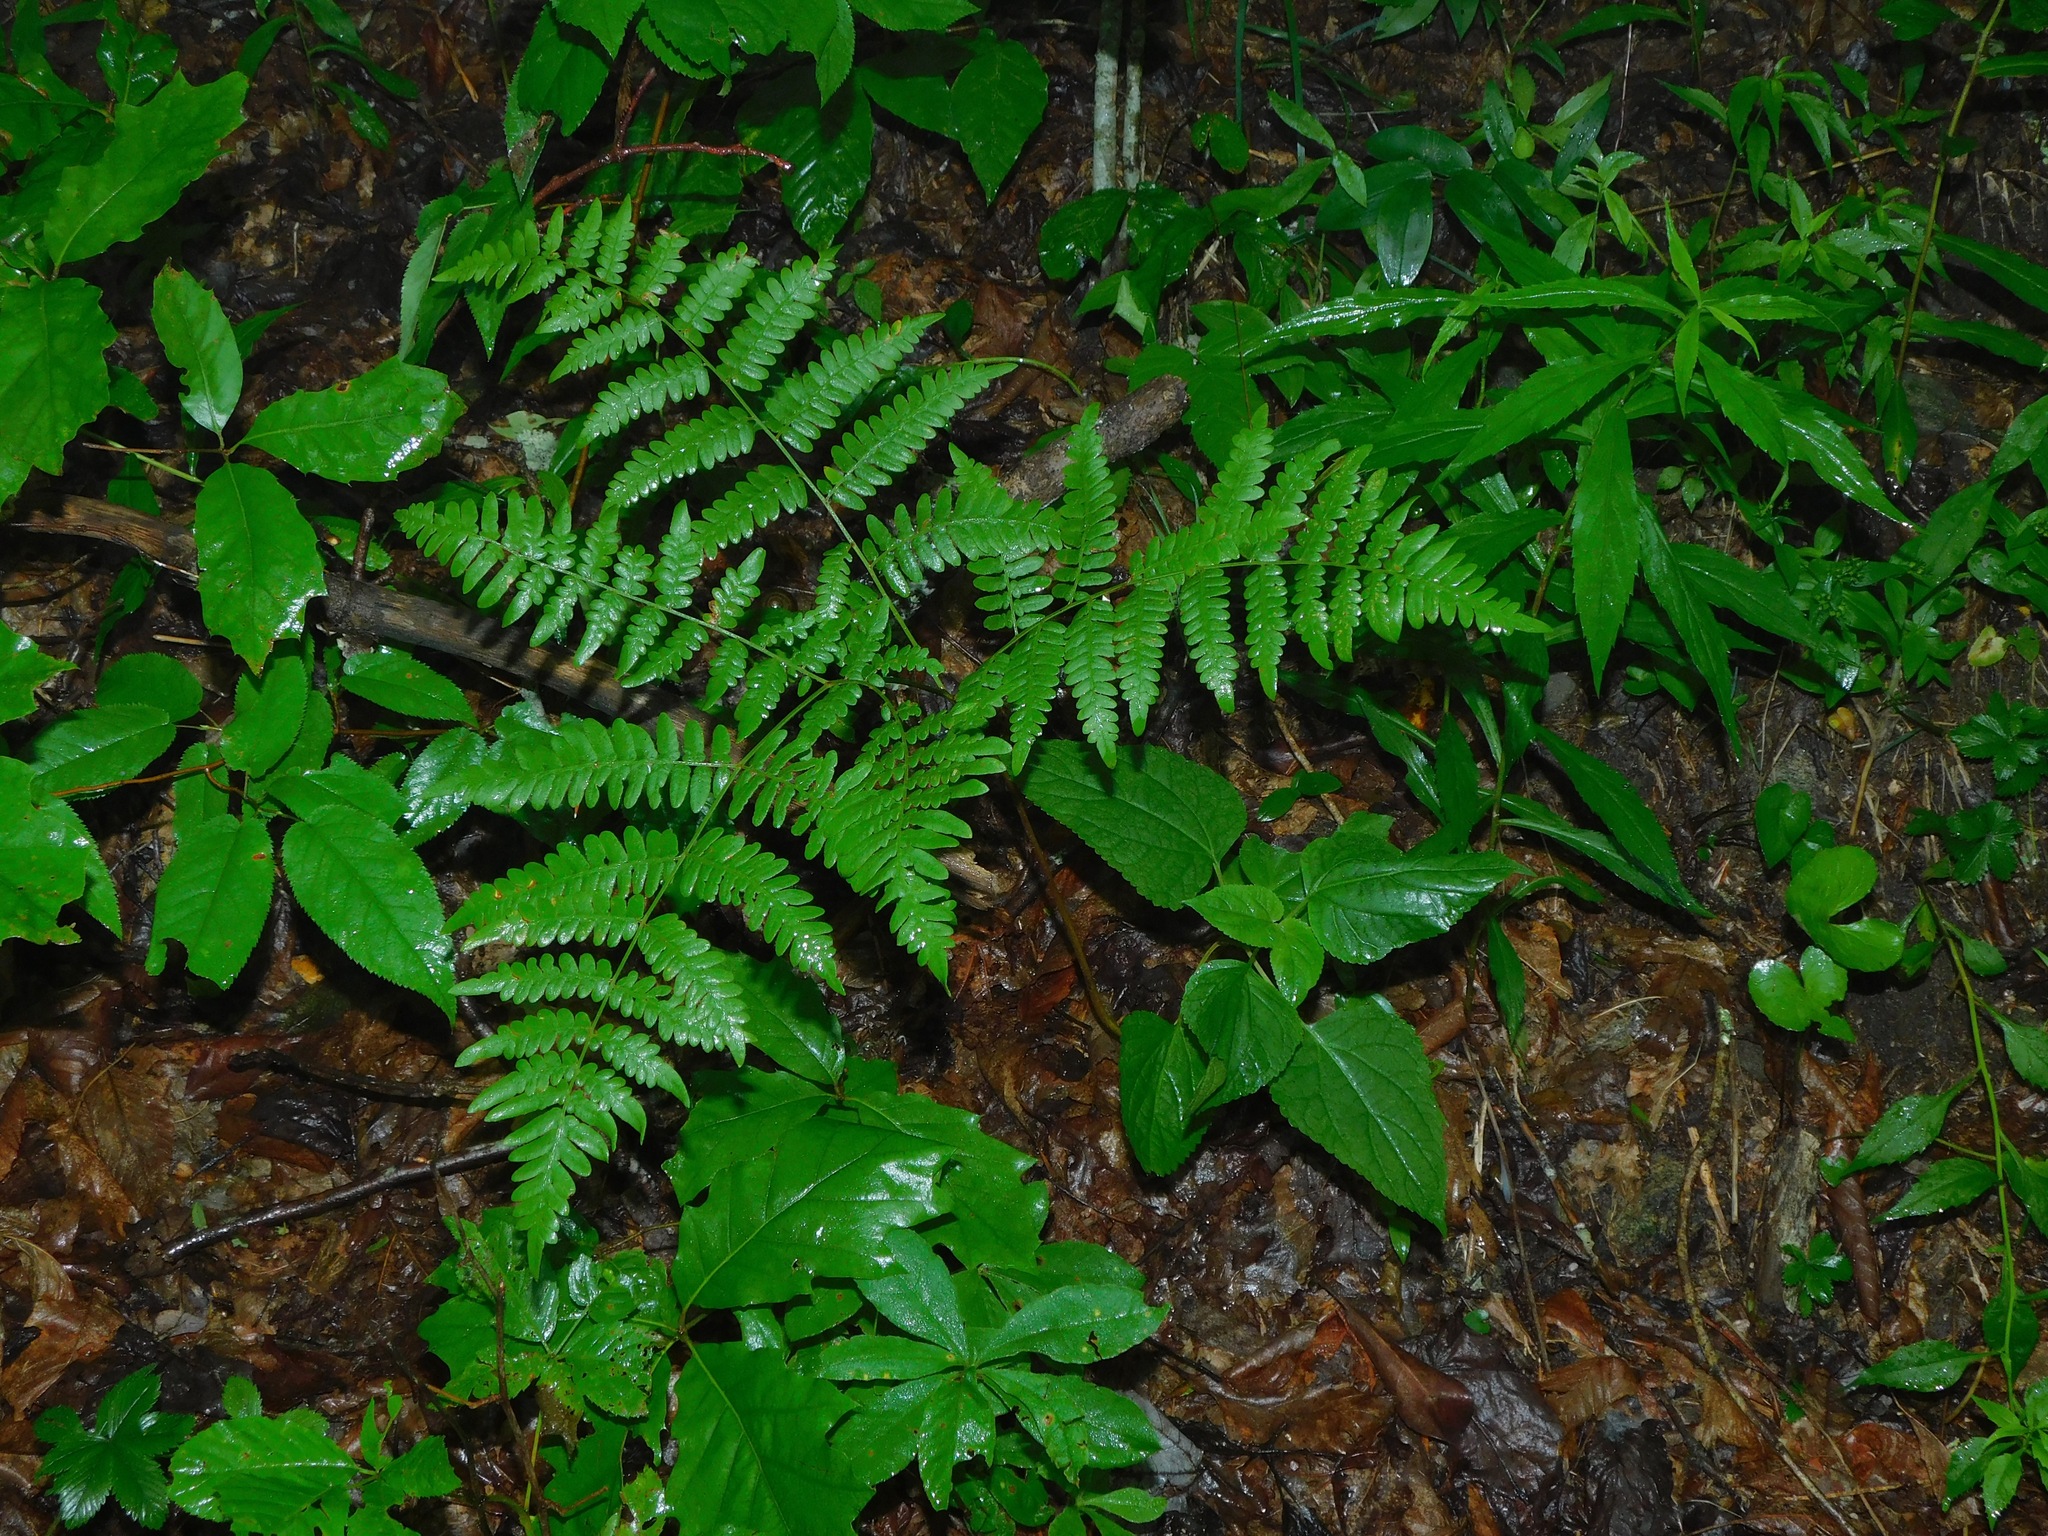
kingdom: Plantae
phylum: Tracheophyta
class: Polypodiopsida
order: Polypodiales
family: Dennstaedtiaceae
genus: Pteridium
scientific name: Pteridium aquilinum
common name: Bracken
